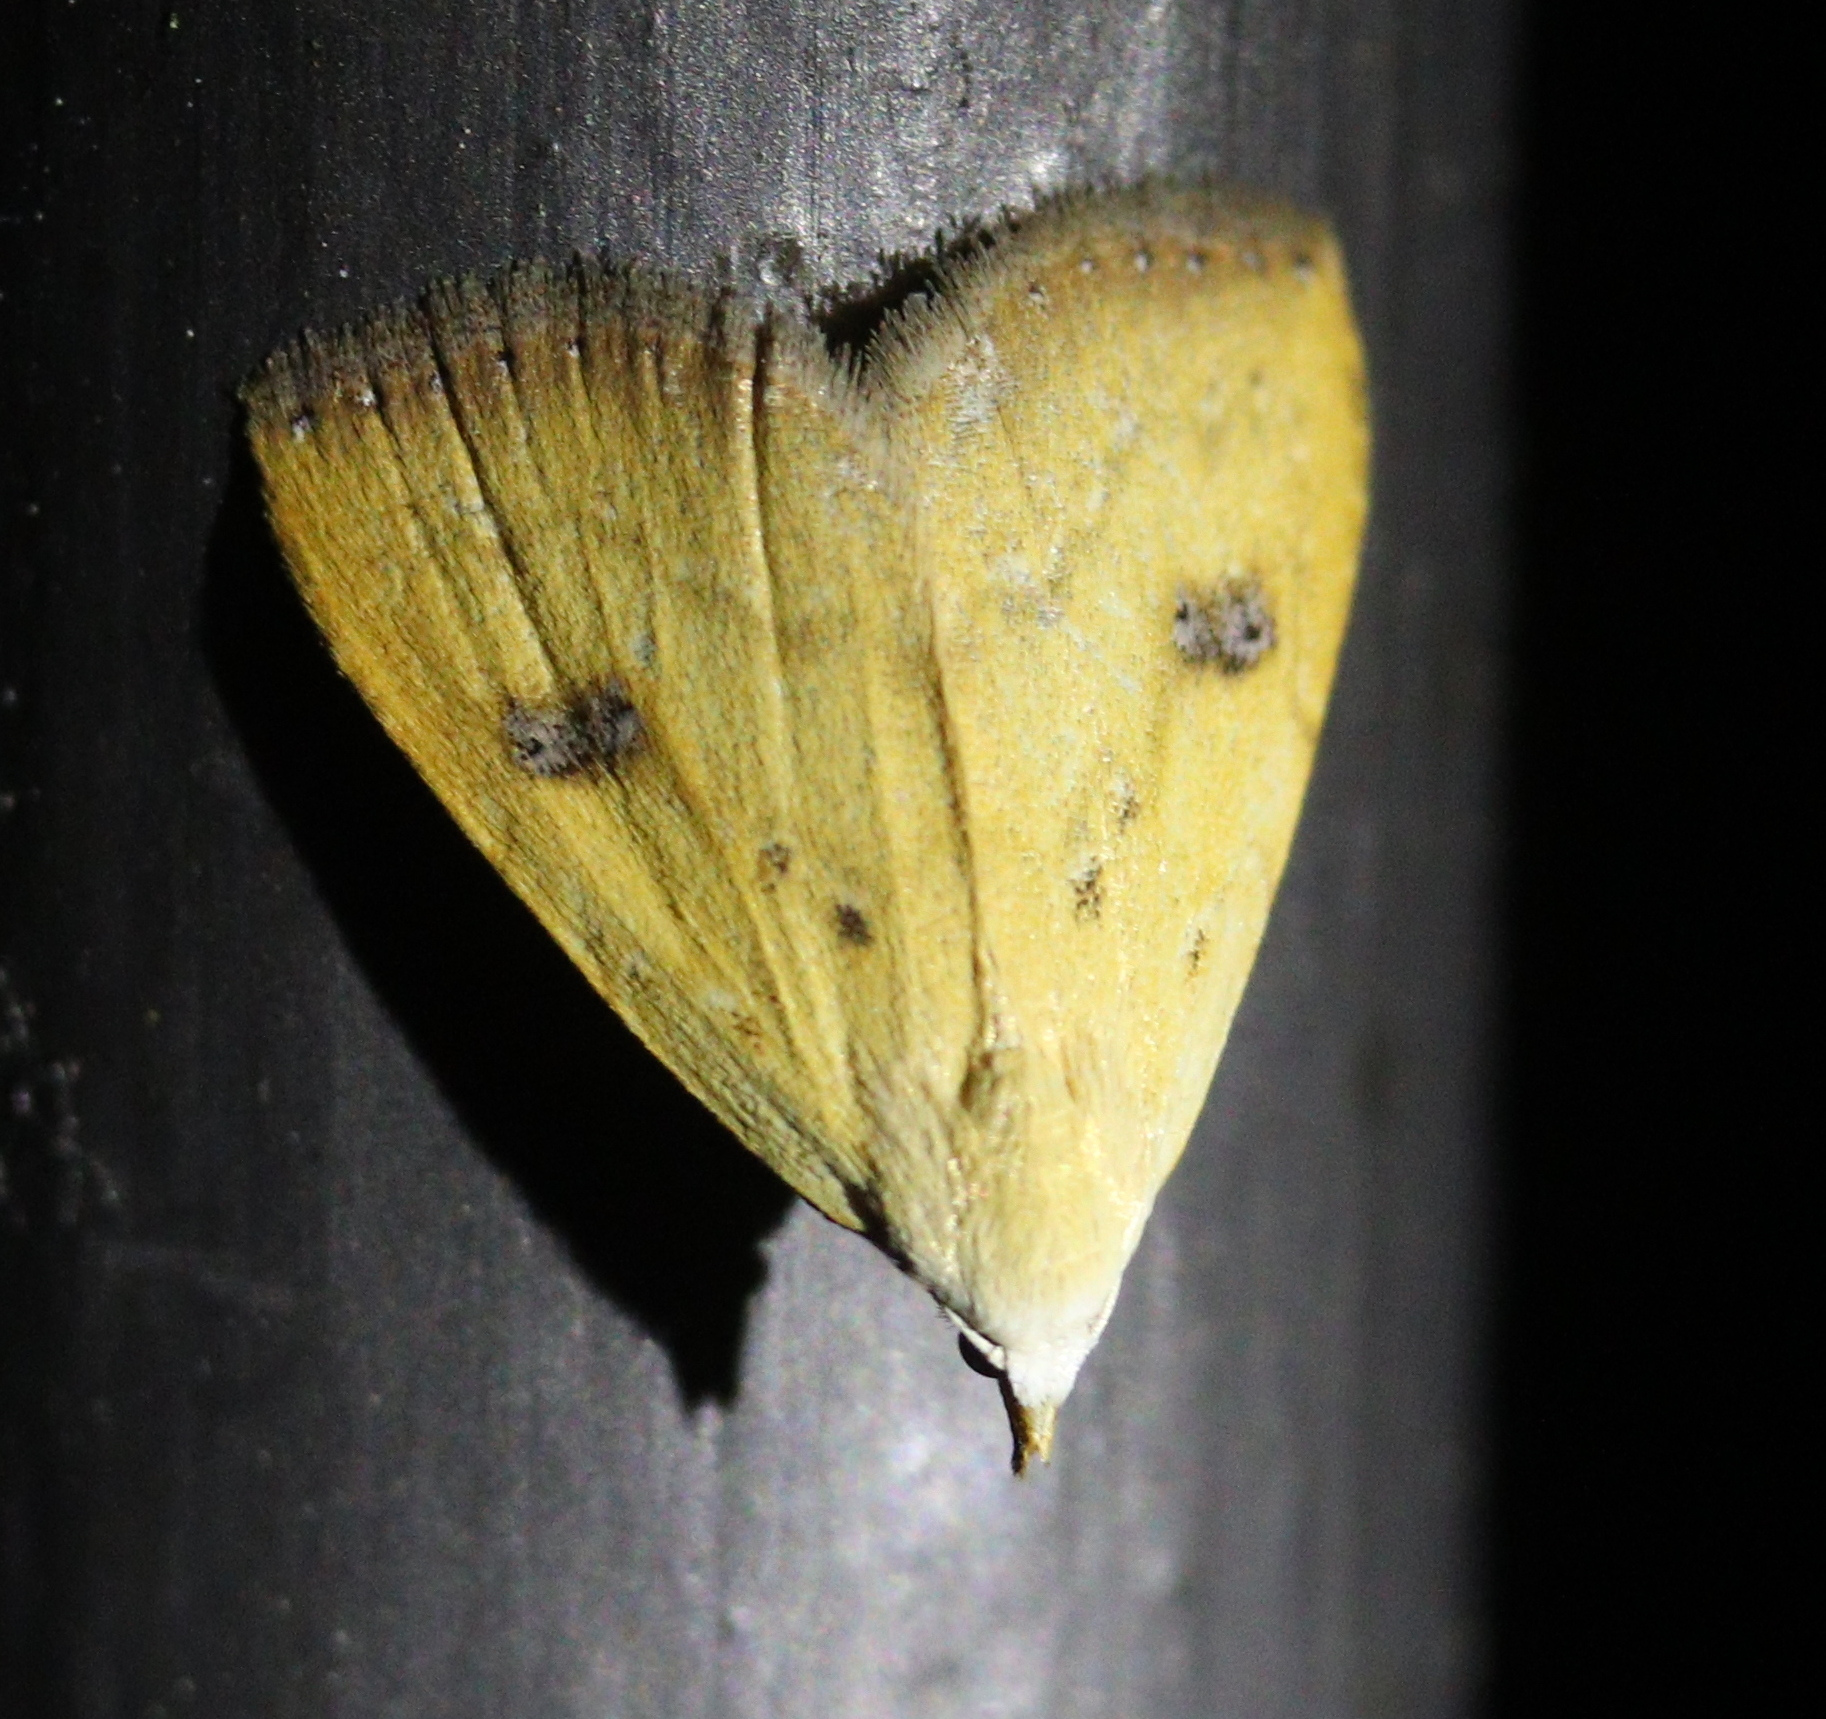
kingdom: Animalia
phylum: Arthropoda
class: Insecta
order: Lepidoptera
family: Erebidae
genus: Rivula
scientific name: Rivula sericealis
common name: Straw dot
